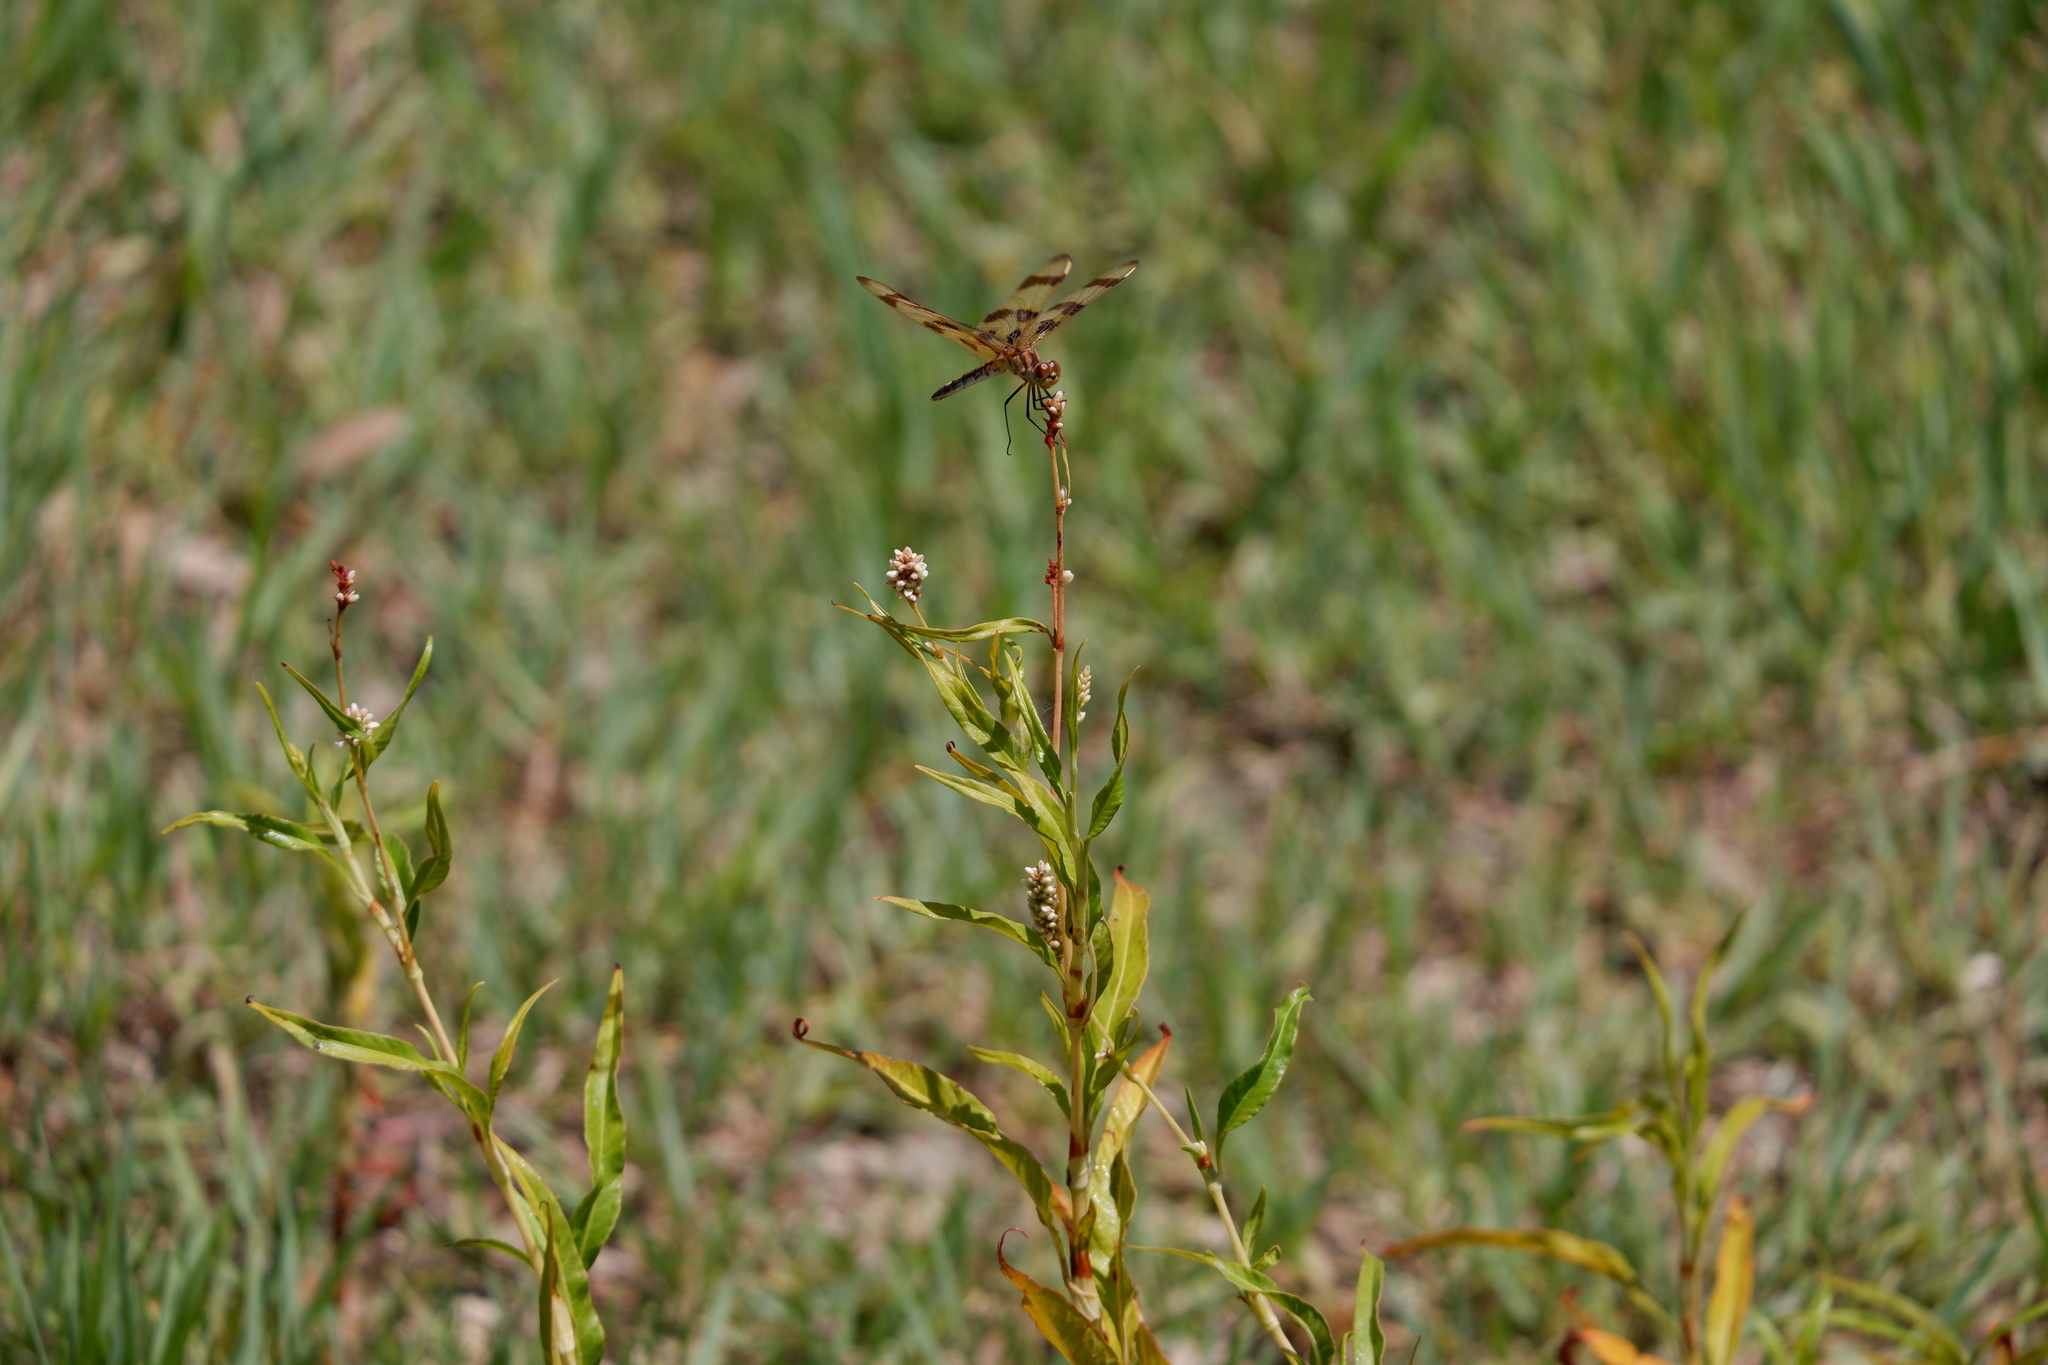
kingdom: Animalia
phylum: Arthropoda
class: Insecta
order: Odonata
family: Libellulidae
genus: Celithemis
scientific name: Celithemis eponina
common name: Halloween pennant
